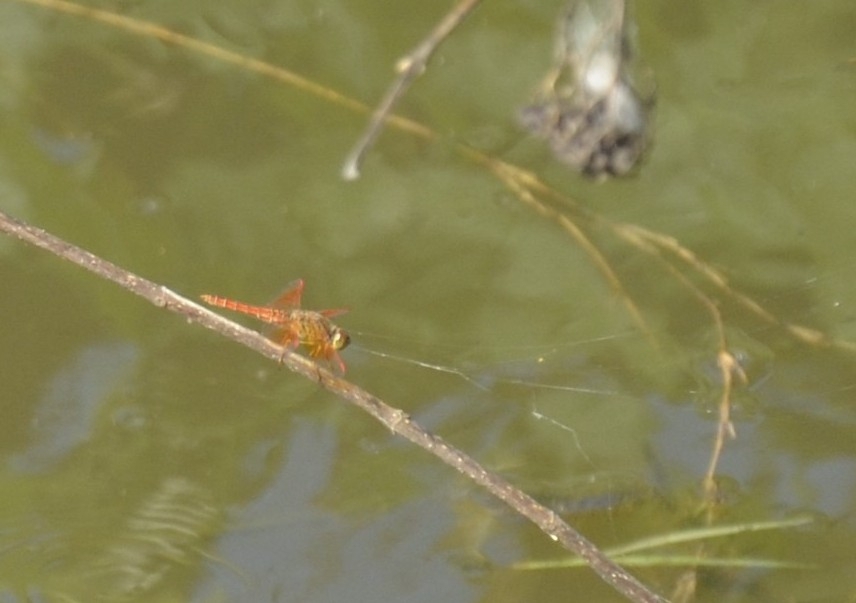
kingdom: Animalia
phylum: Arthropoda
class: Insecta
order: Odonata
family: Libellulidae
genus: Brachythemis
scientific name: Brachythemis contaminata
